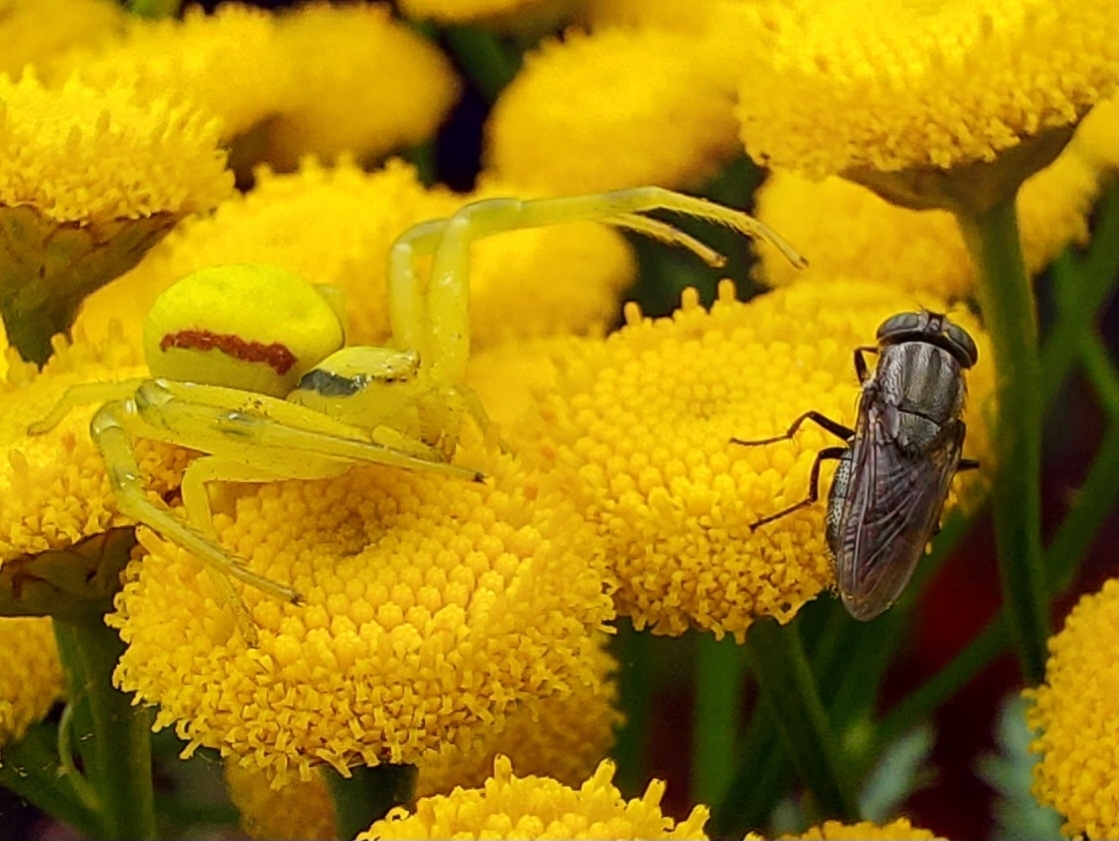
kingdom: Animalia
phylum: Arthropoda
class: Arachnida
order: Araneae
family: Thomisidae
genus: Misumena
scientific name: Misumena vatia
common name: Goldenrod crab spider
